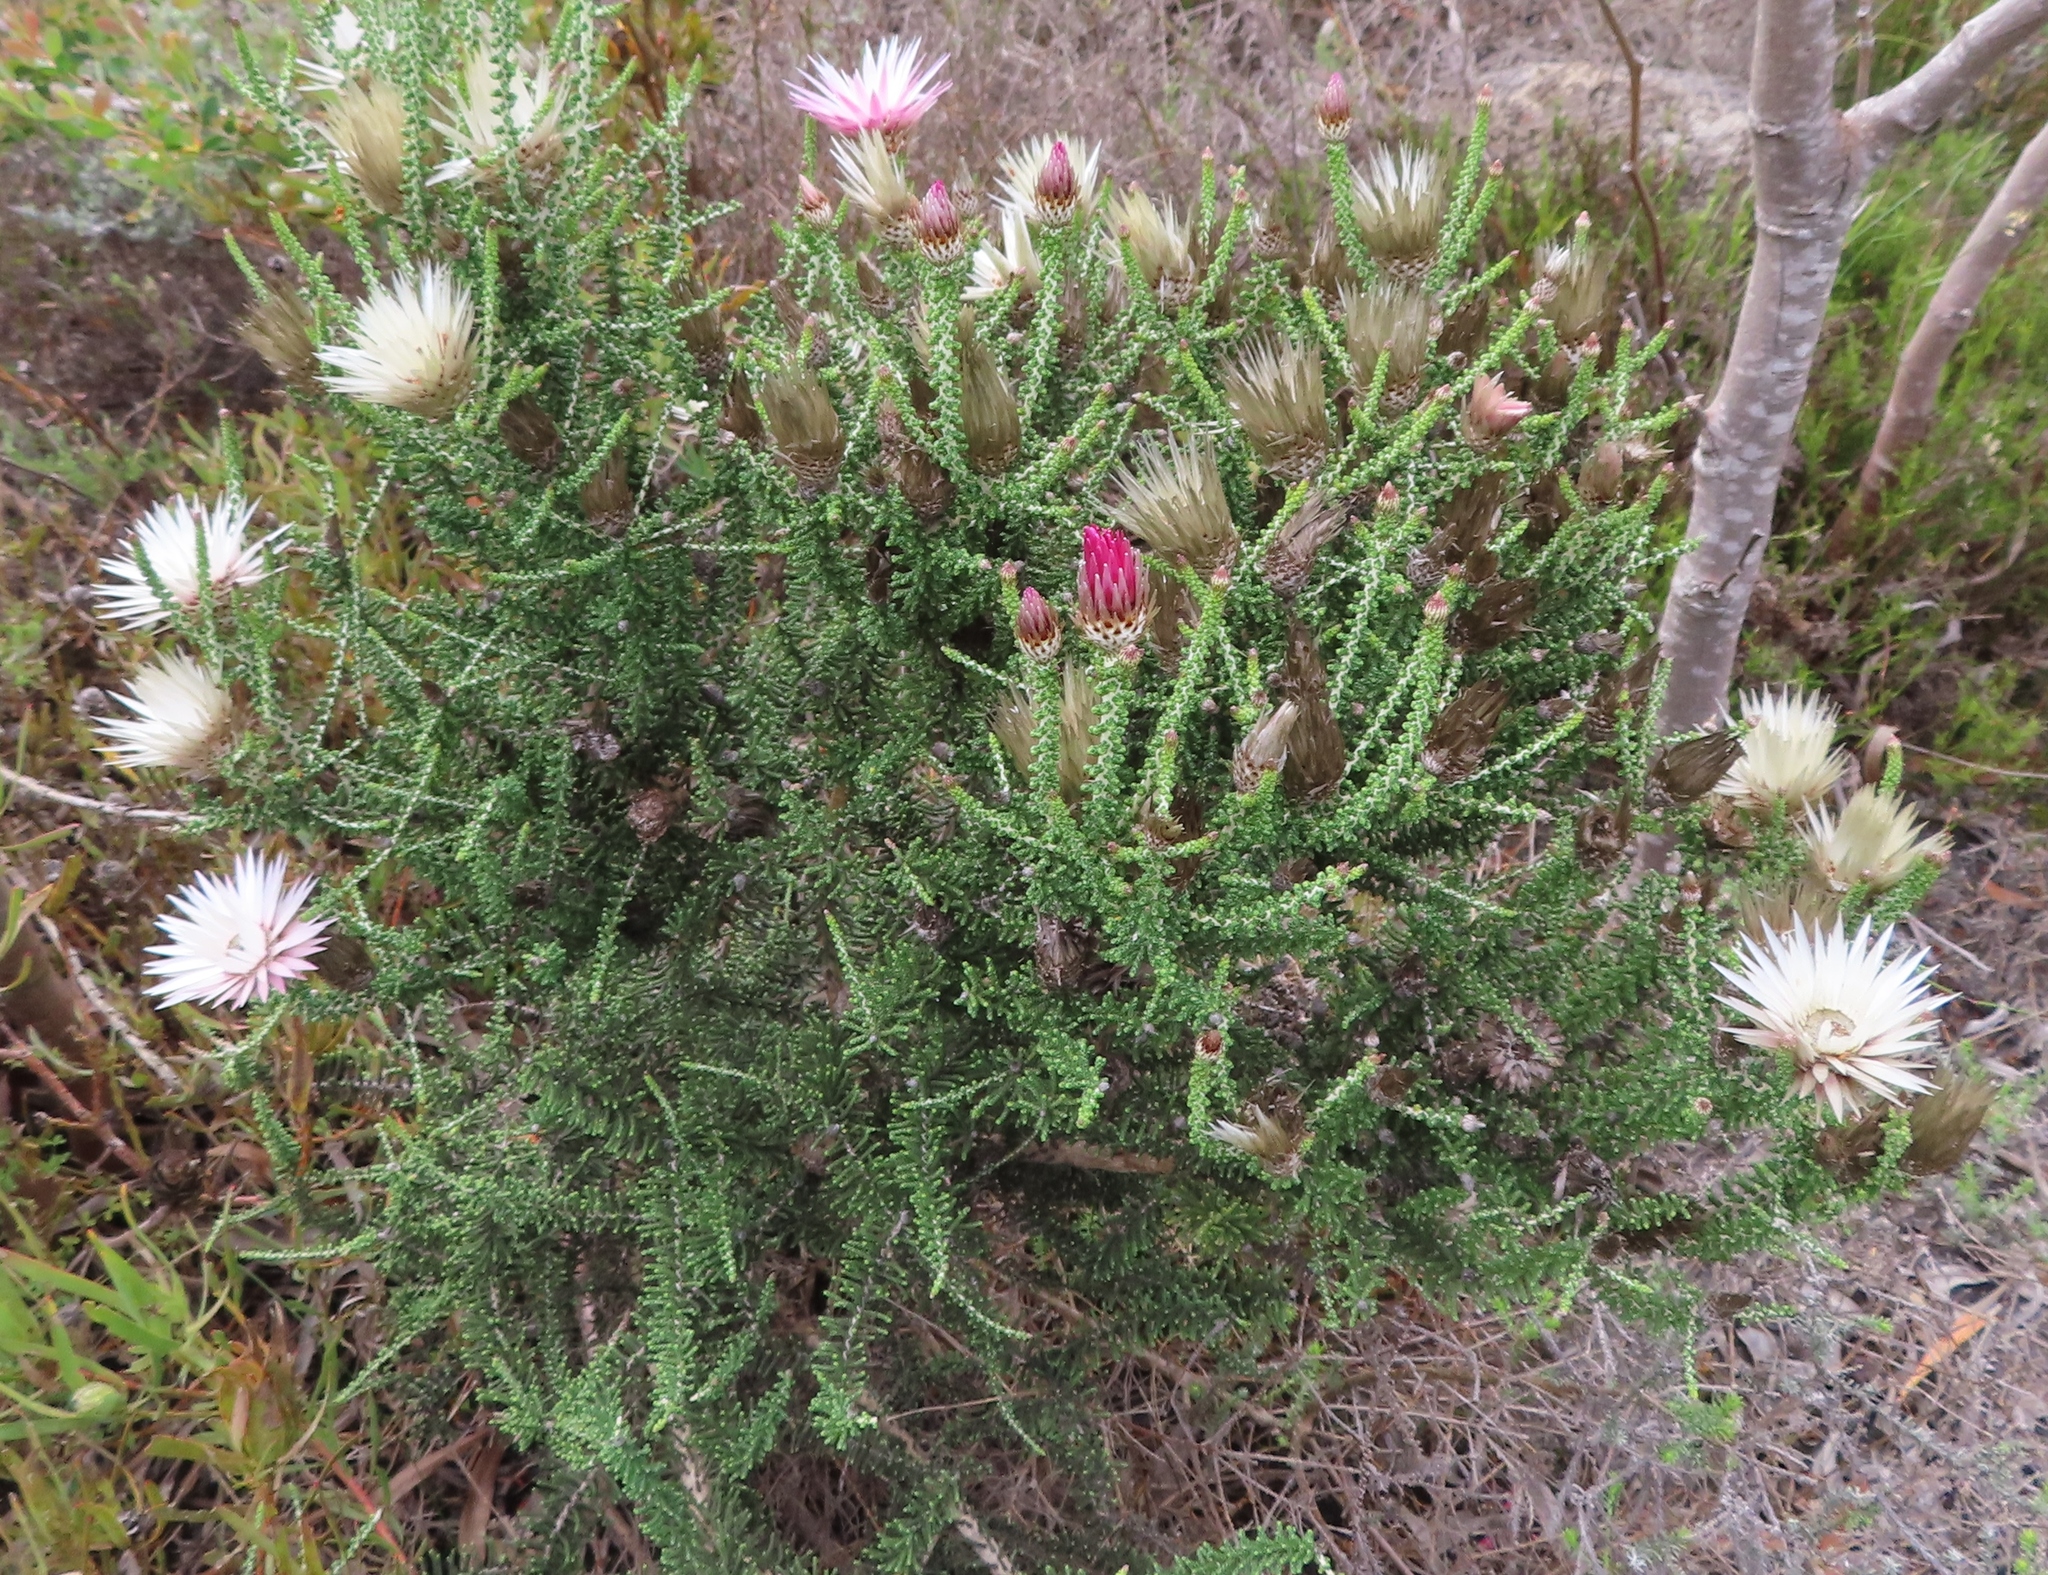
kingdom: Plantae
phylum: Tracheophyta
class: Magnoliopsida
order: Asterales
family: Asteraceae
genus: Phaenocoma
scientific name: Phaenocoma prolifera
